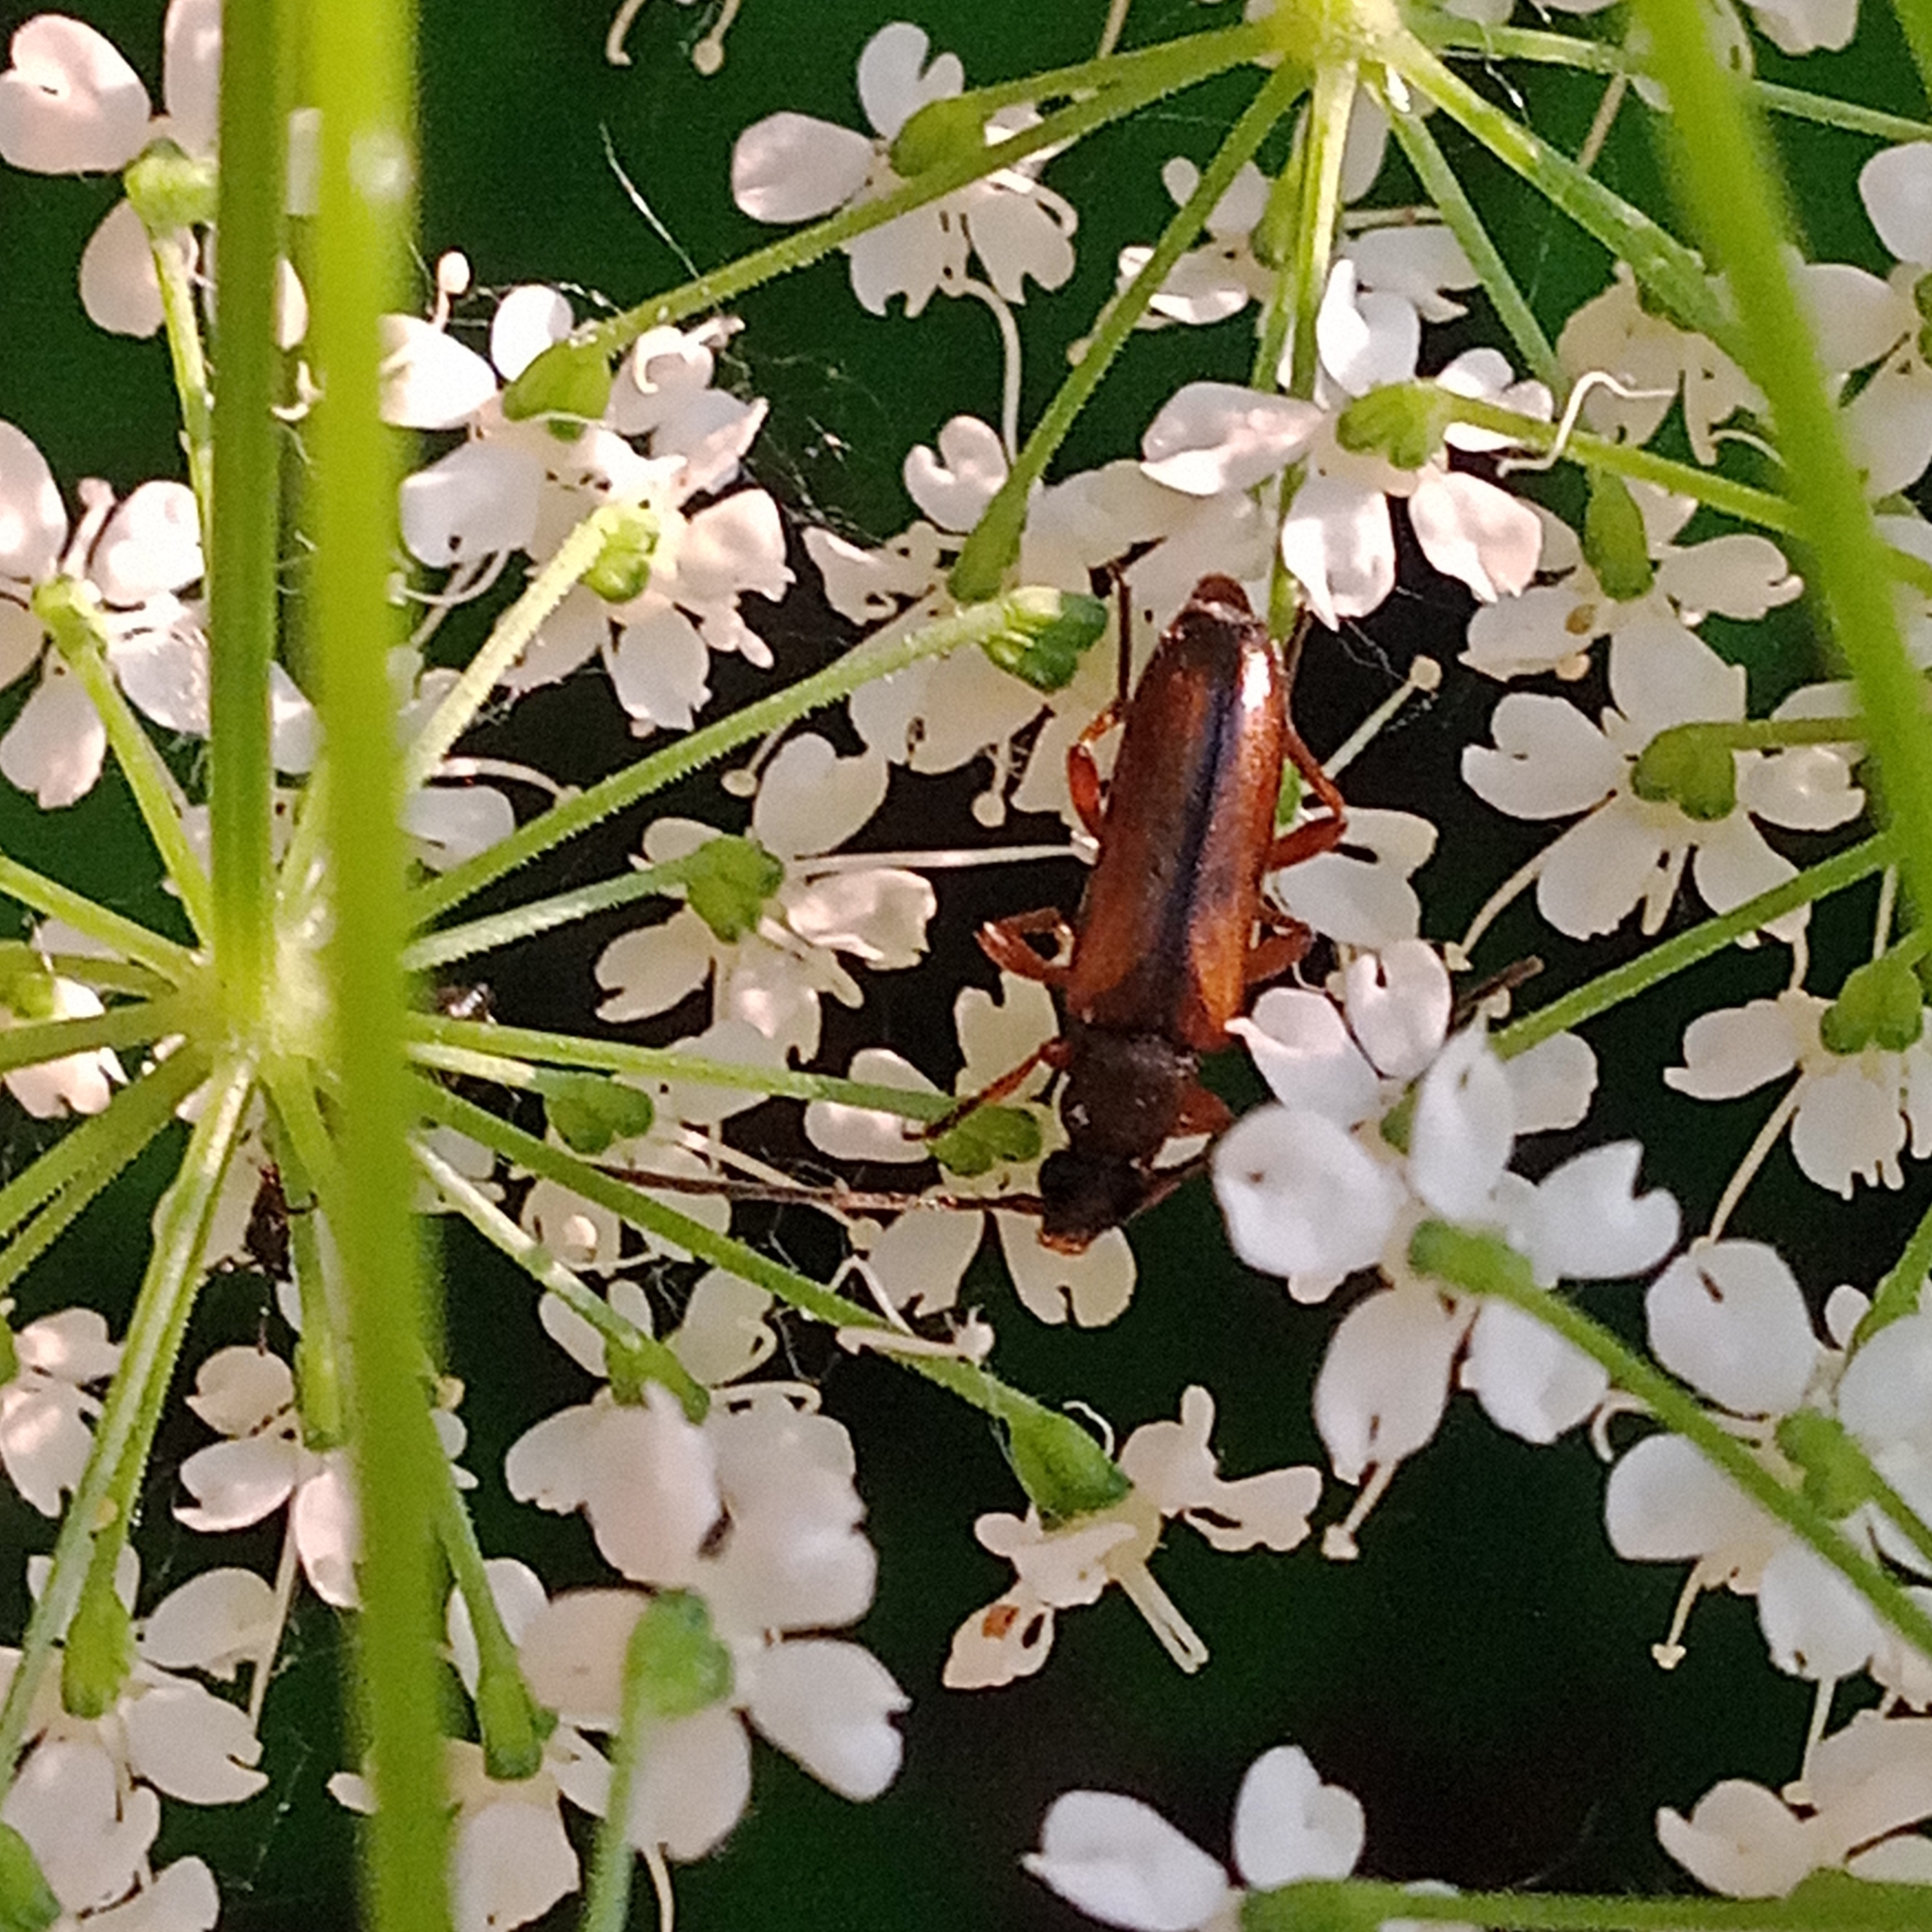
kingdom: Animalia
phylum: Arthropoda
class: Insecta
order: Coleoptera
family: Cerambycidae
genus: Alosterna
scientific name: Alosterna tabacicolor
